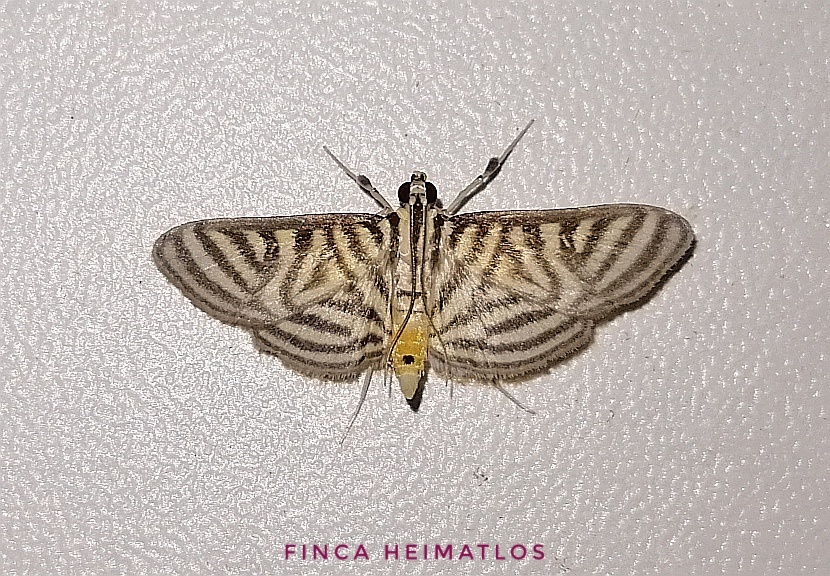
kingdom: Animalia
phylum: Arthropoda
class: Insecta
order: Lepidoptera
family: Crambidae
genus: Zebronia
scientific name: Zebronia
